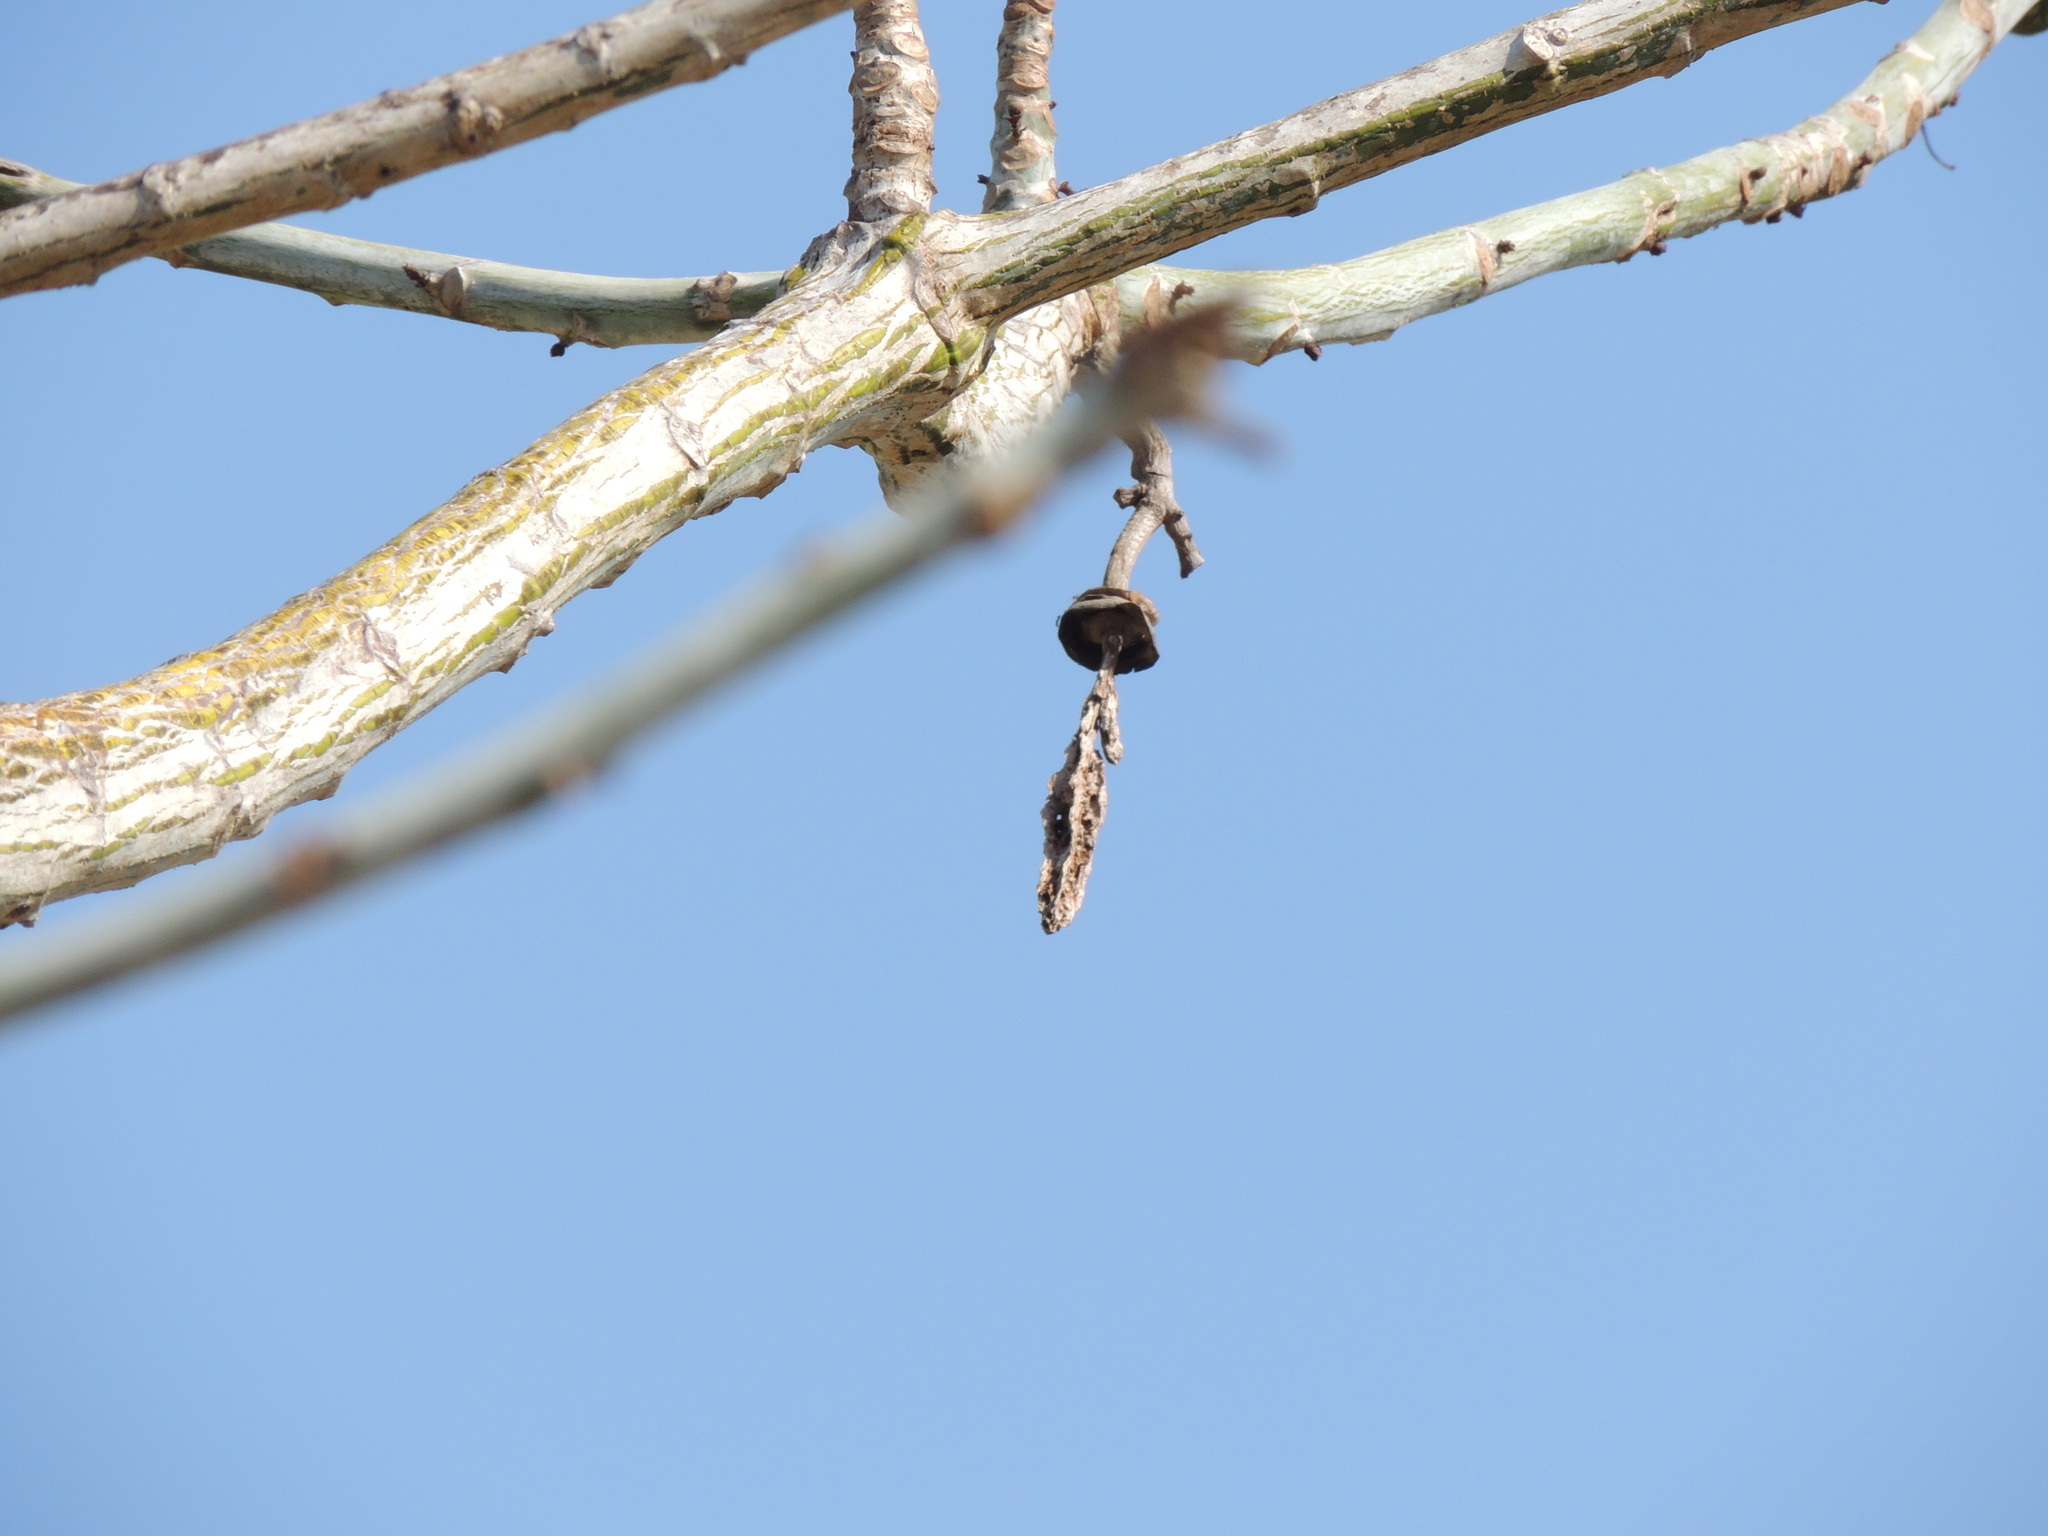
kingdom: Plantae
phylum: Tracheophyta
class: Magnoliopsida
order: Malvales
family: Malvaceae
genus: Pseudobombax
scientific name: Pseudobombax septenatum
